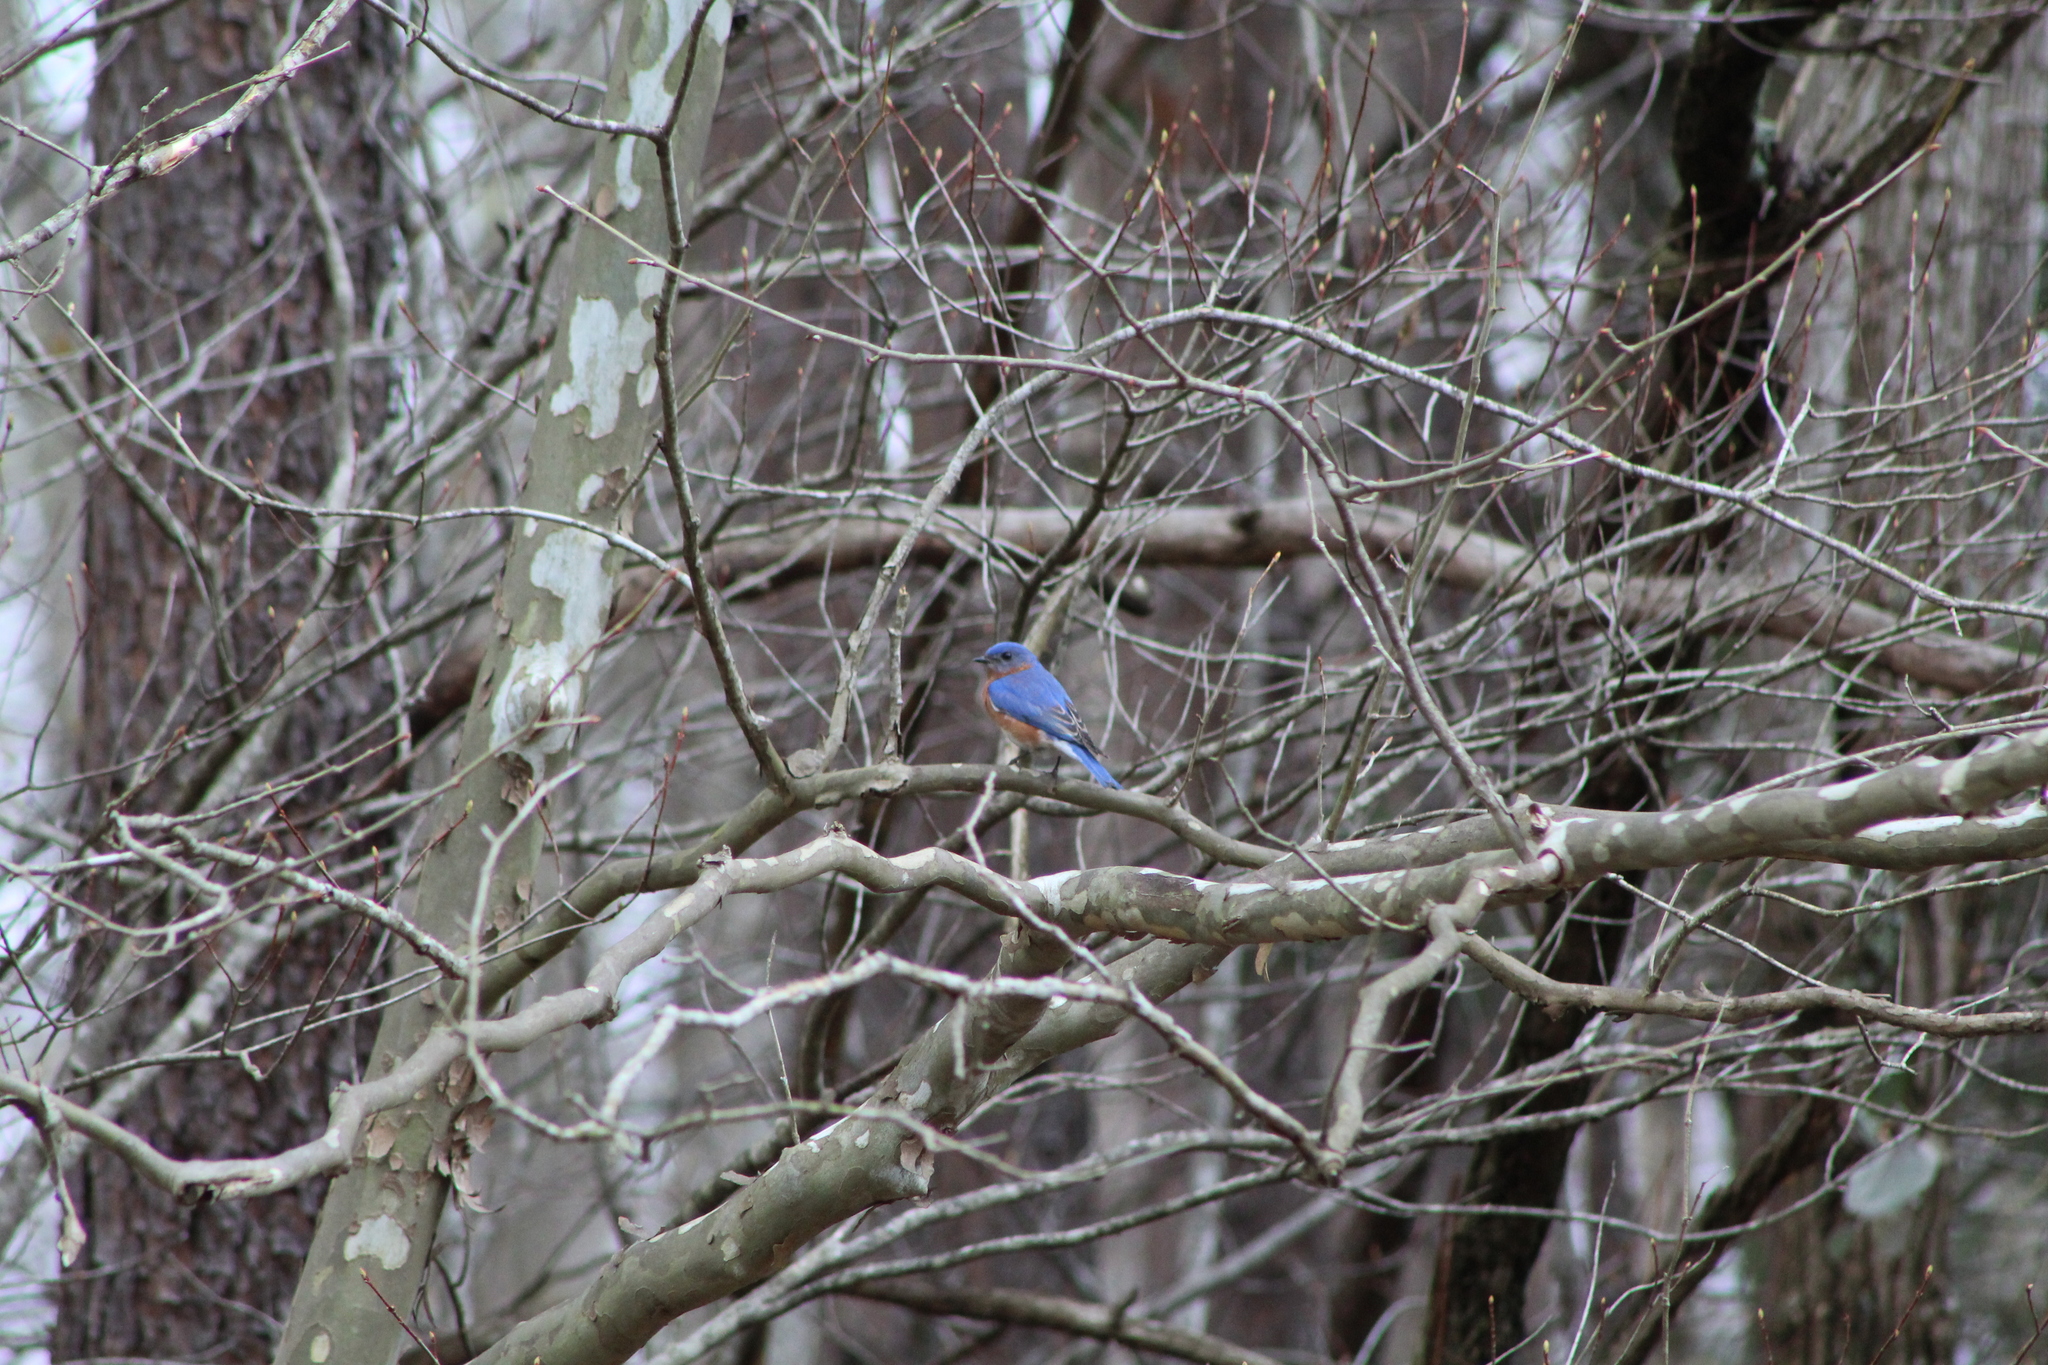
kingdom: Animalia
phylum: Chordata
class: Aves
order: Passeriformes
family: Turdidae
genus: Sialia
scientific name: Sialia sialis
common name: Eastern bluebird
